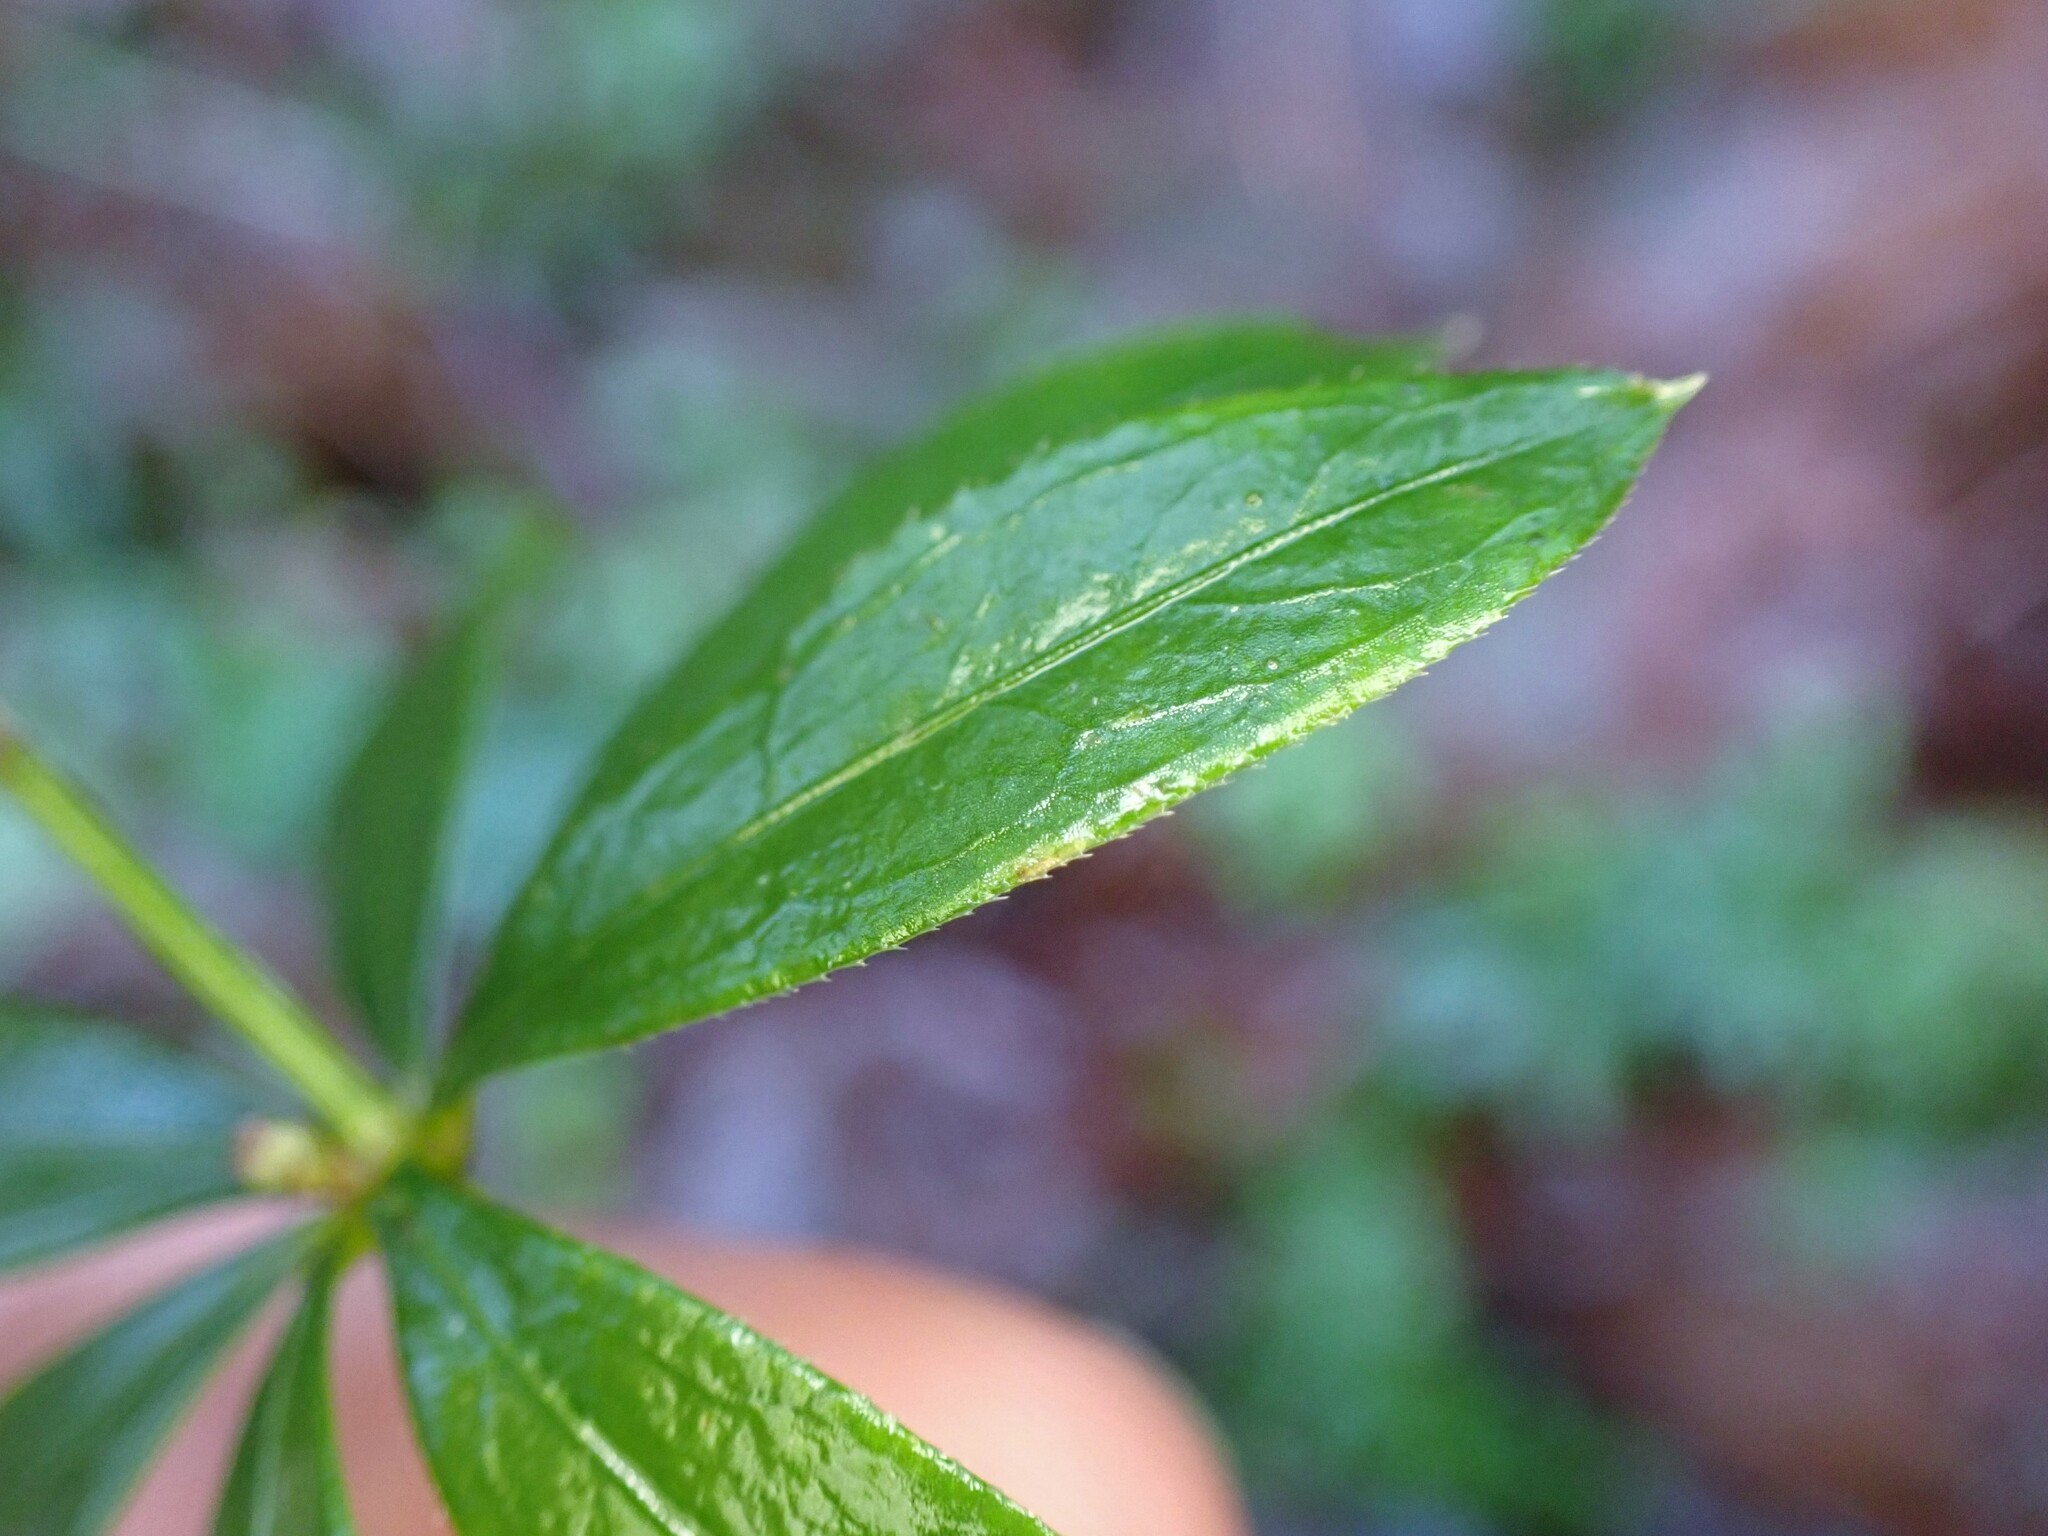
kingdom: Plantae
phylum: Tracheophyta
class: Magnoliopsida
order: Gentianales
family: Rubiaceae
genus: Galium
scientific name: Galium odoratum
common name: Sweet woodruff
